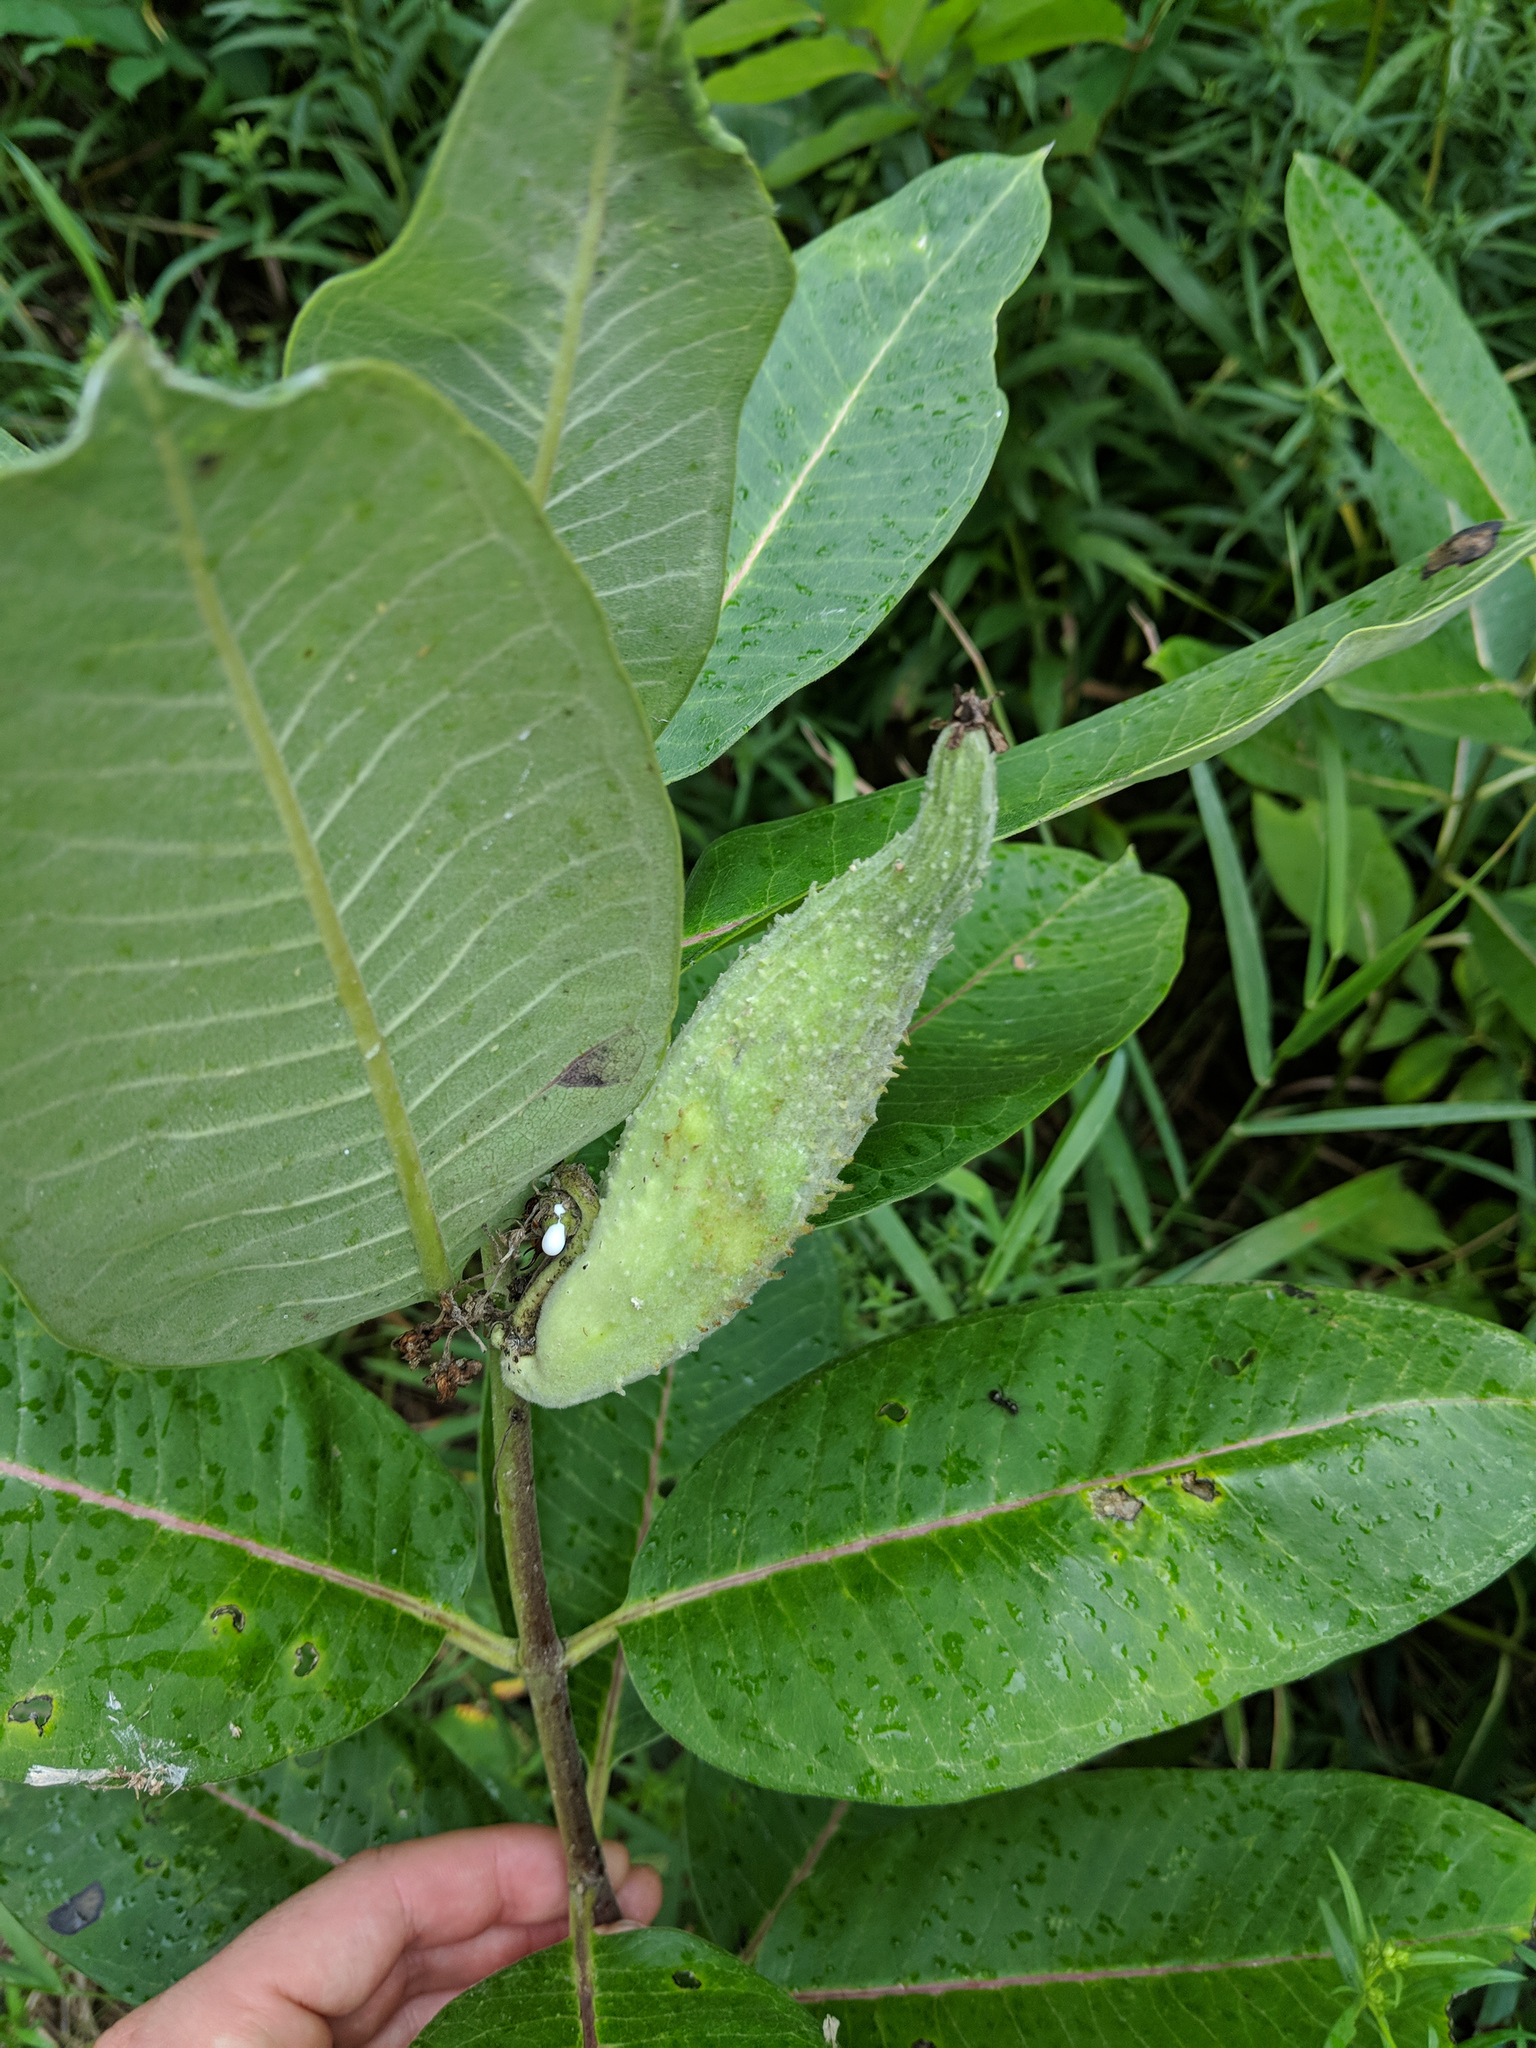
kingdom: Plantae
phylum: Tracheophyta
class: Magnoliopsida
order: Gentianales
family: Apocynaceae
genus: Asclepias
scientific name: Asclepias syriaca
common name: Common milkweed
